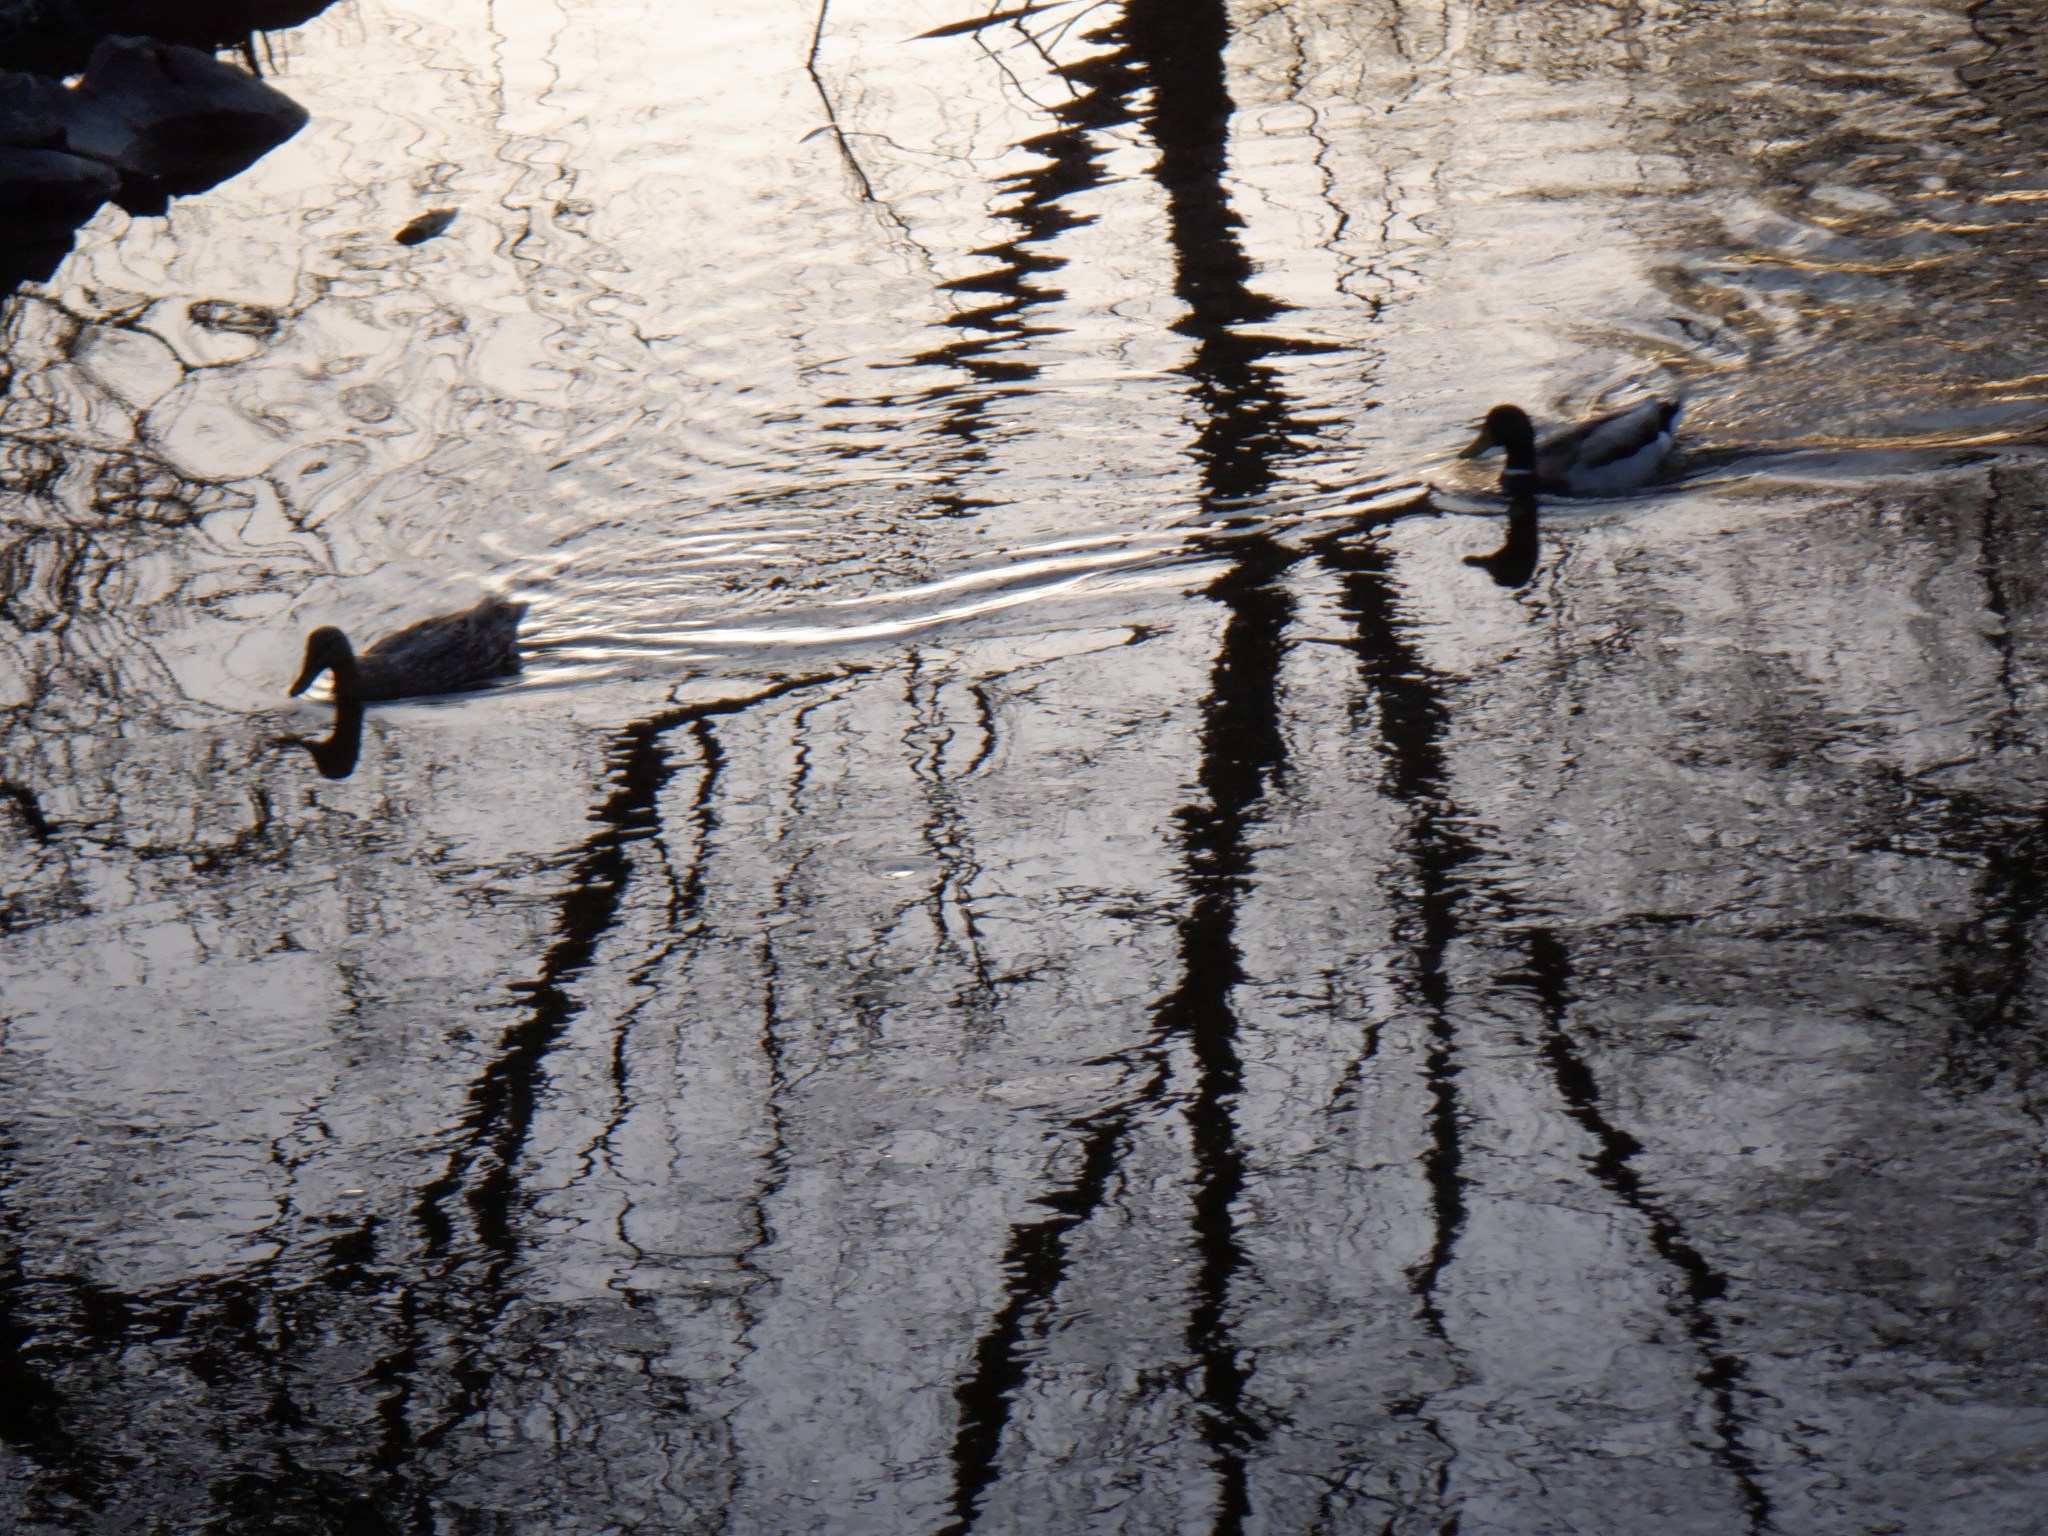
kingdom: Animalia
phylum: Chordata
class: Aves
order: Anseriformes
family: Anatidae
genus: Anas
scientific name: Anas platyrhynchos
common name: Mallard
